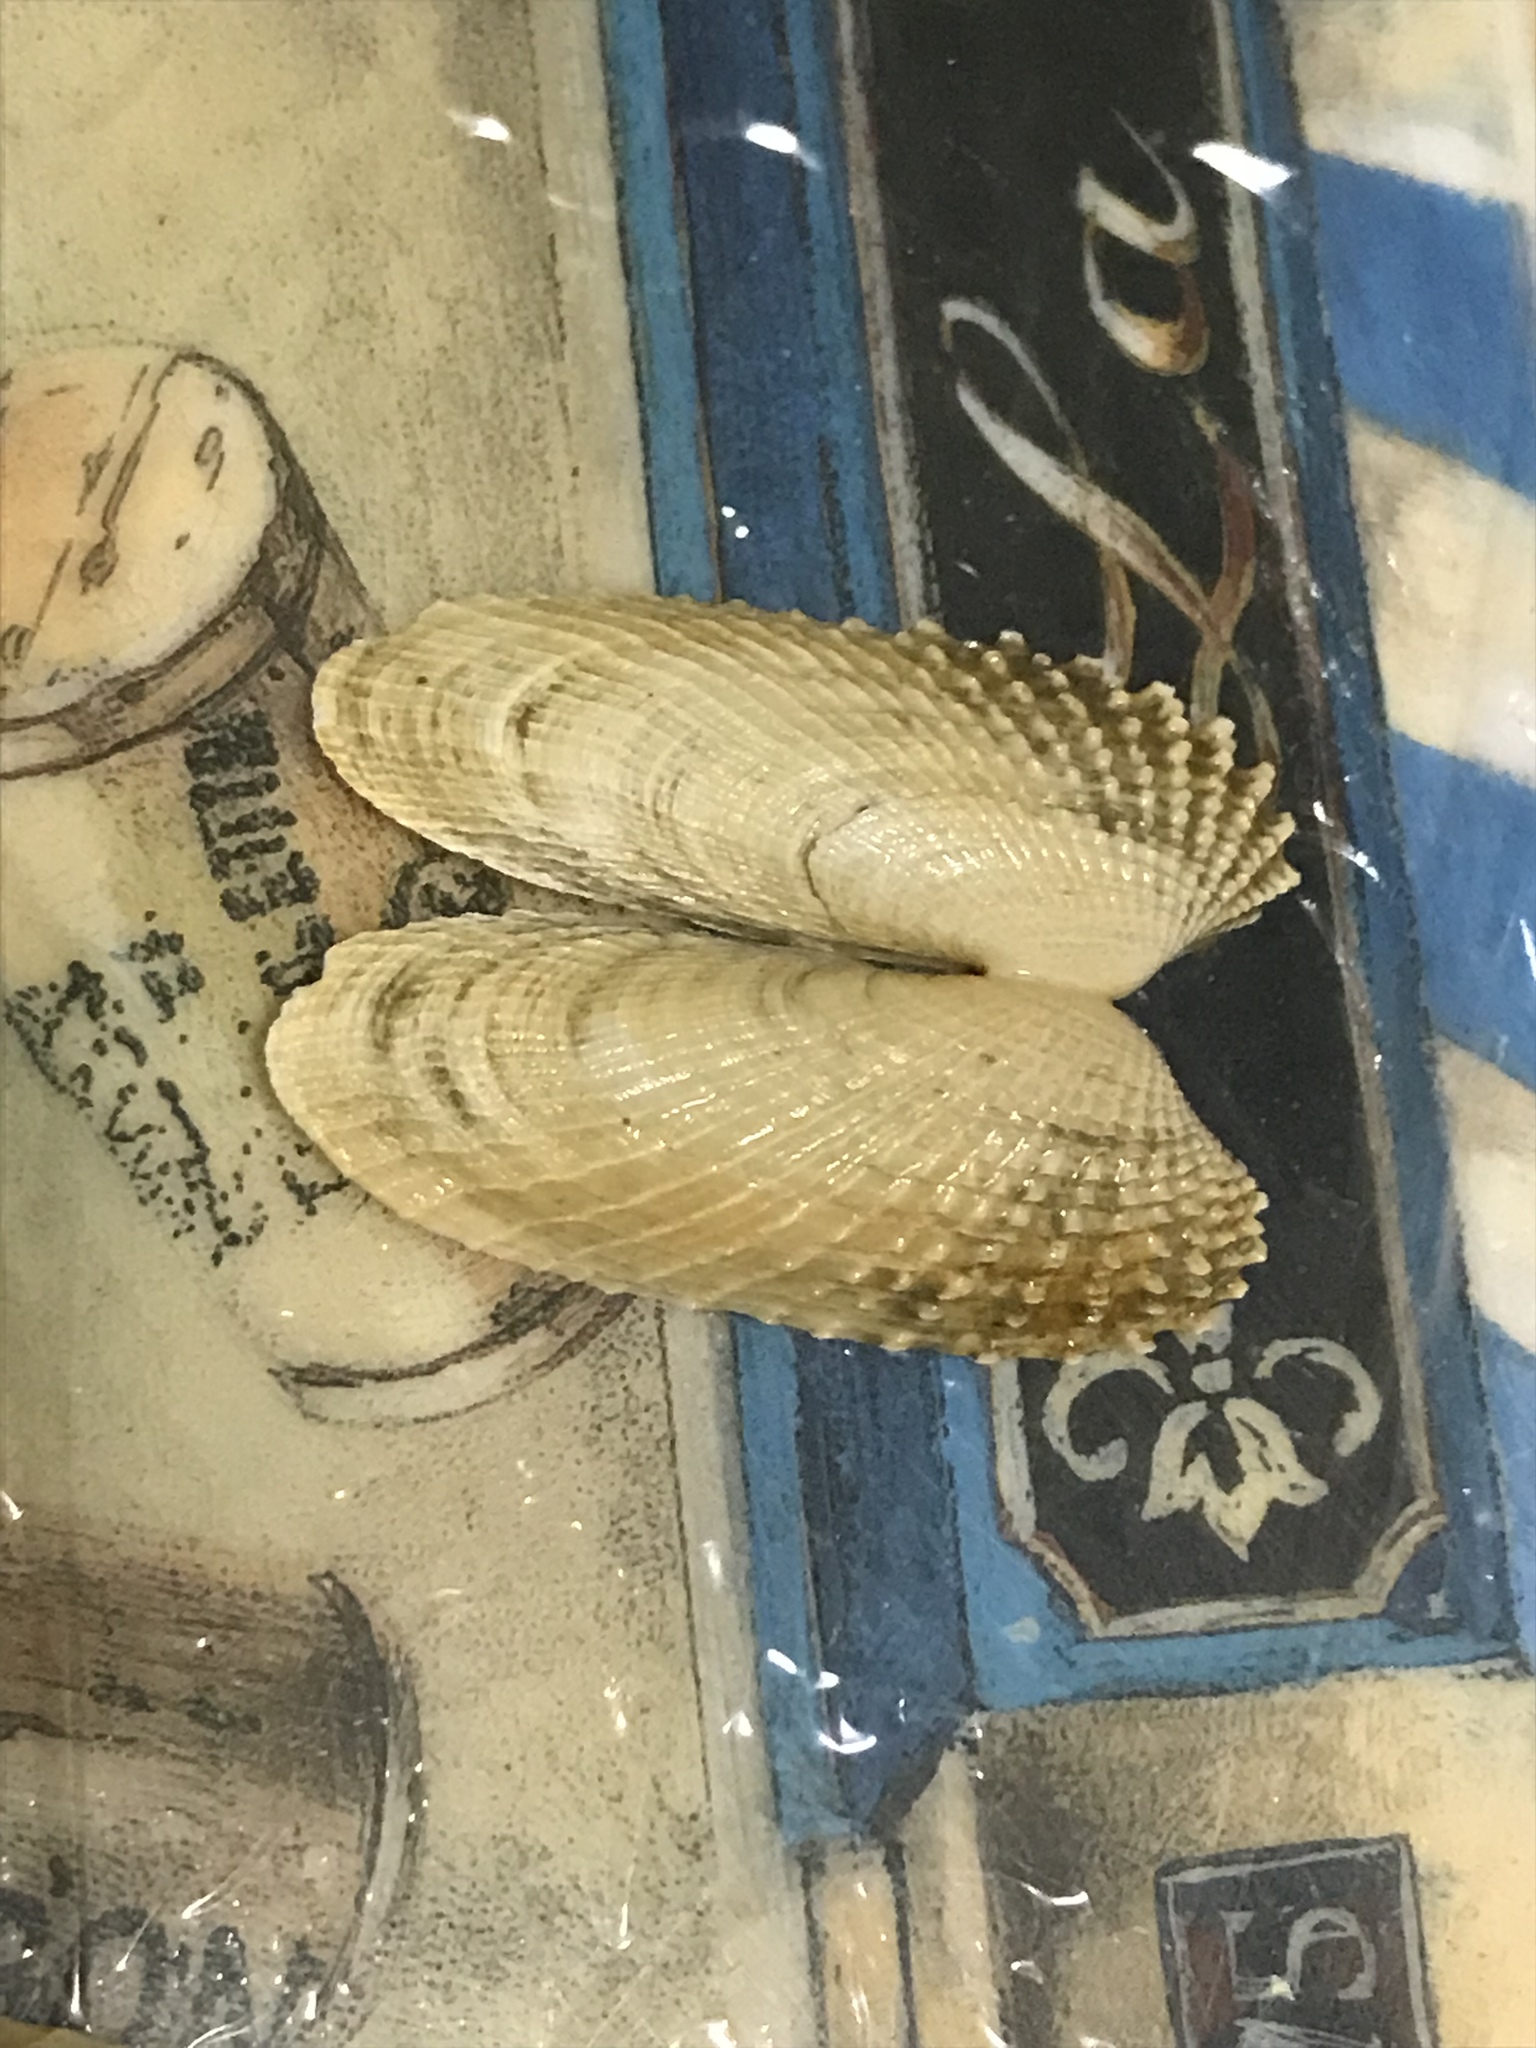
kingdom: Animalia
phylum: Mollusca
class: Bivalvia
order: Venerida
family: Veneridae
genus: Petricolaria
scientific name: Petricolaria pholadiformis
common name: American piddock
